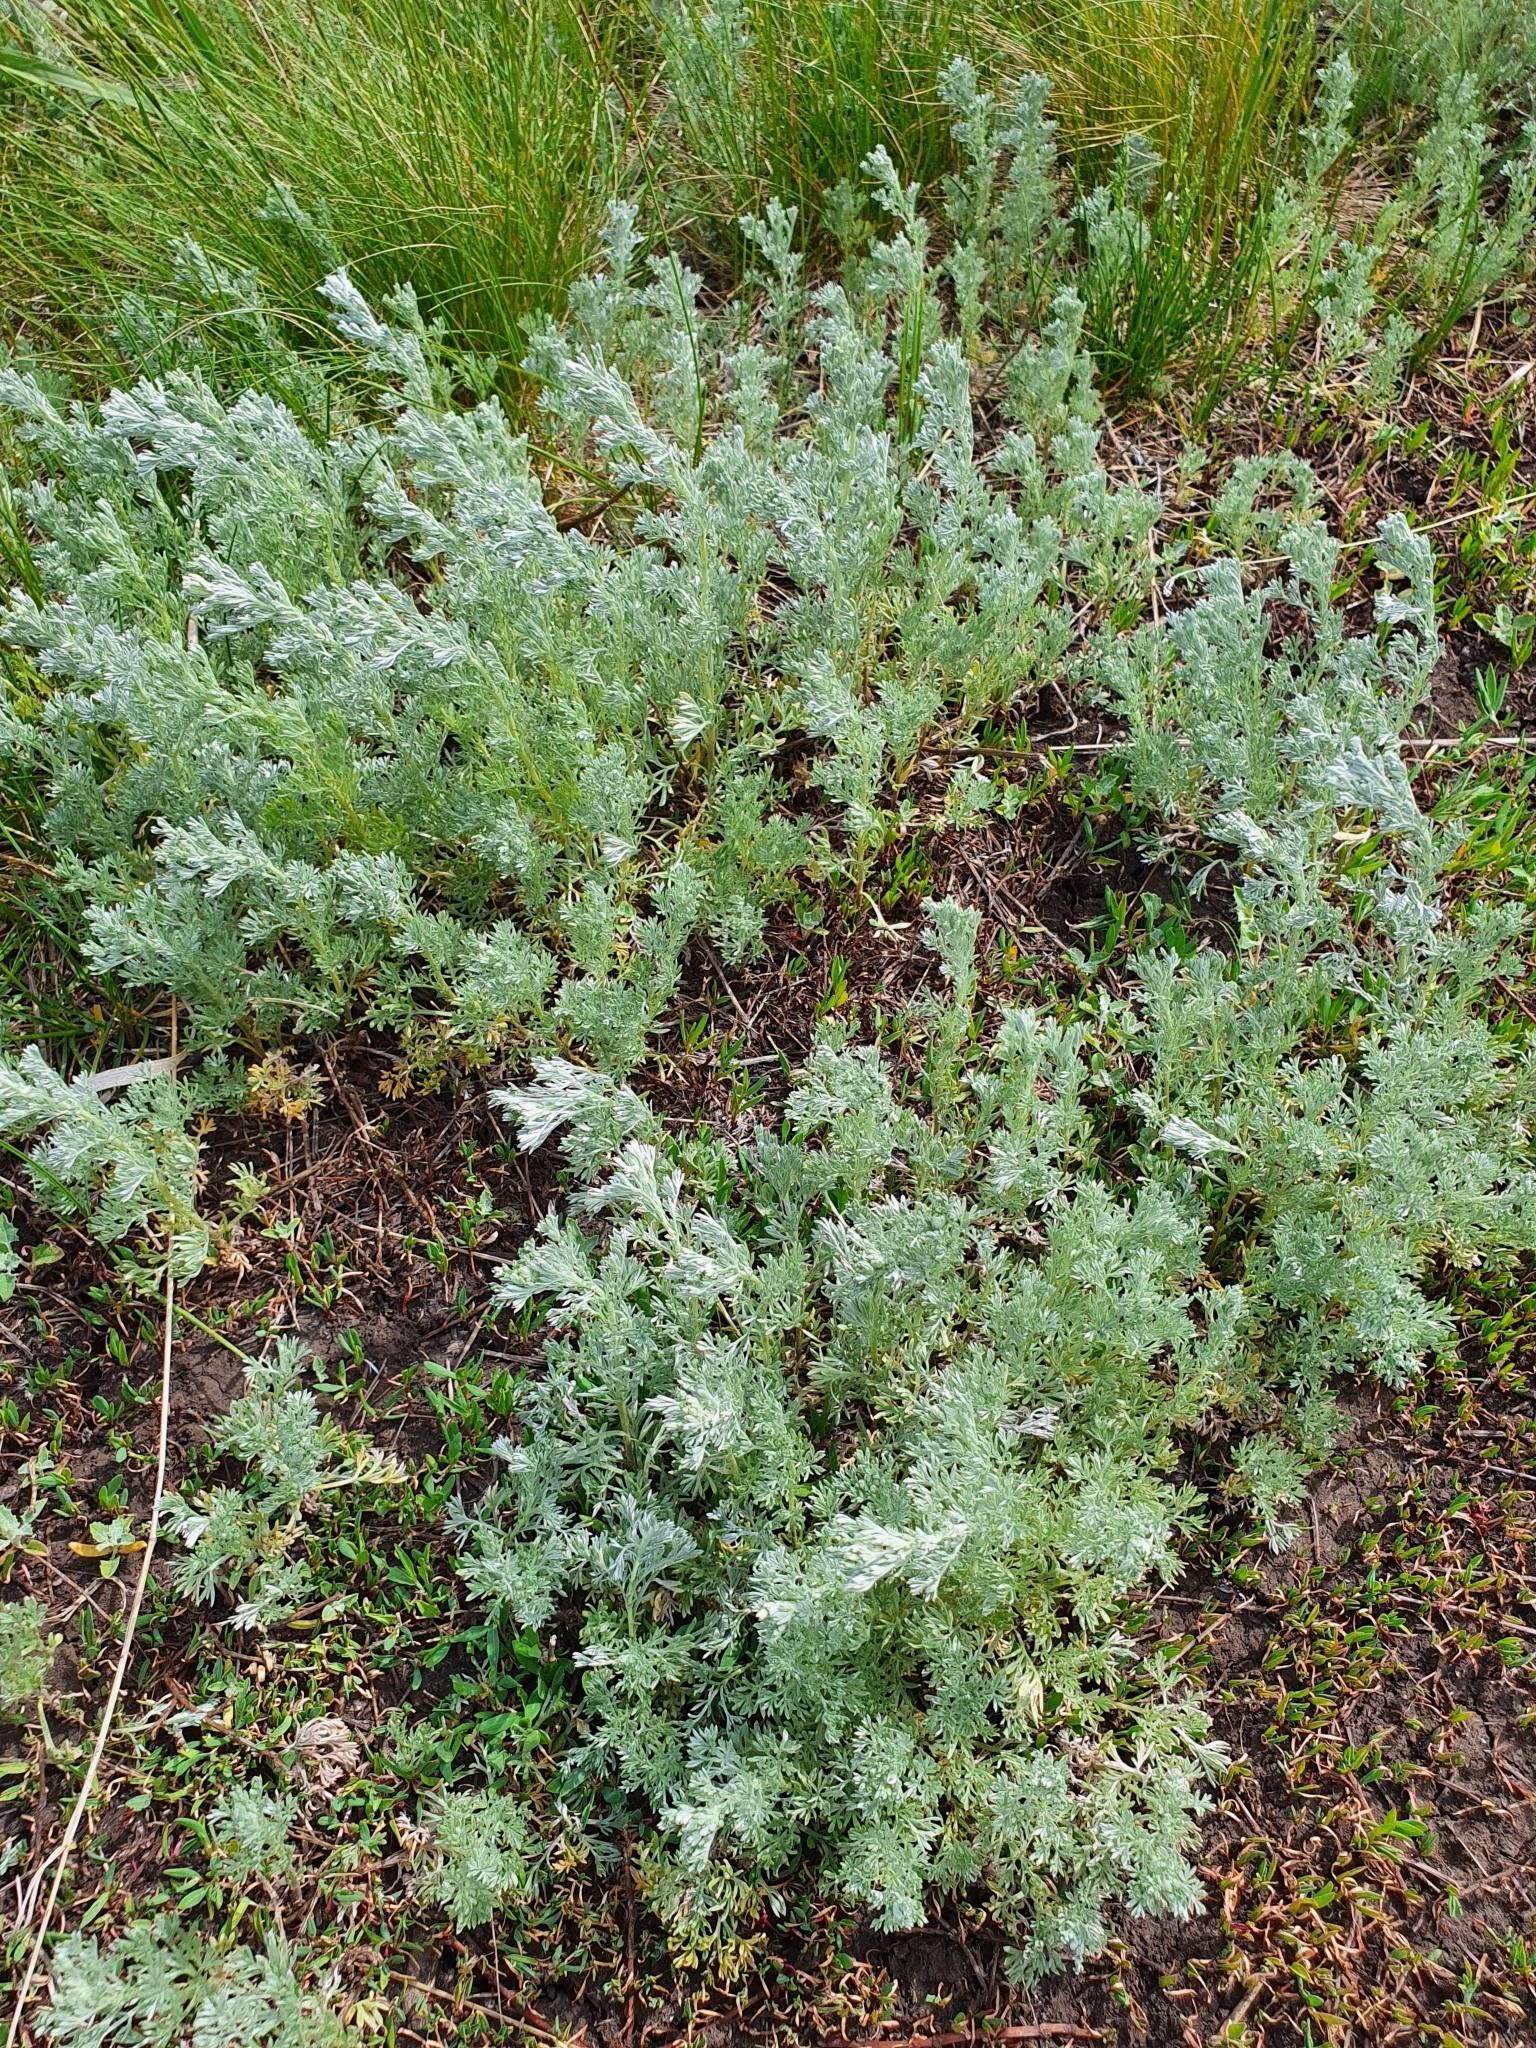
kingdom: Plantae
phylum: Tracheophyta
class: Magnoliopsida
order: Asterales
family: Asteraceae
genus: Artemisia
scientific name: Artemisia austriaca
